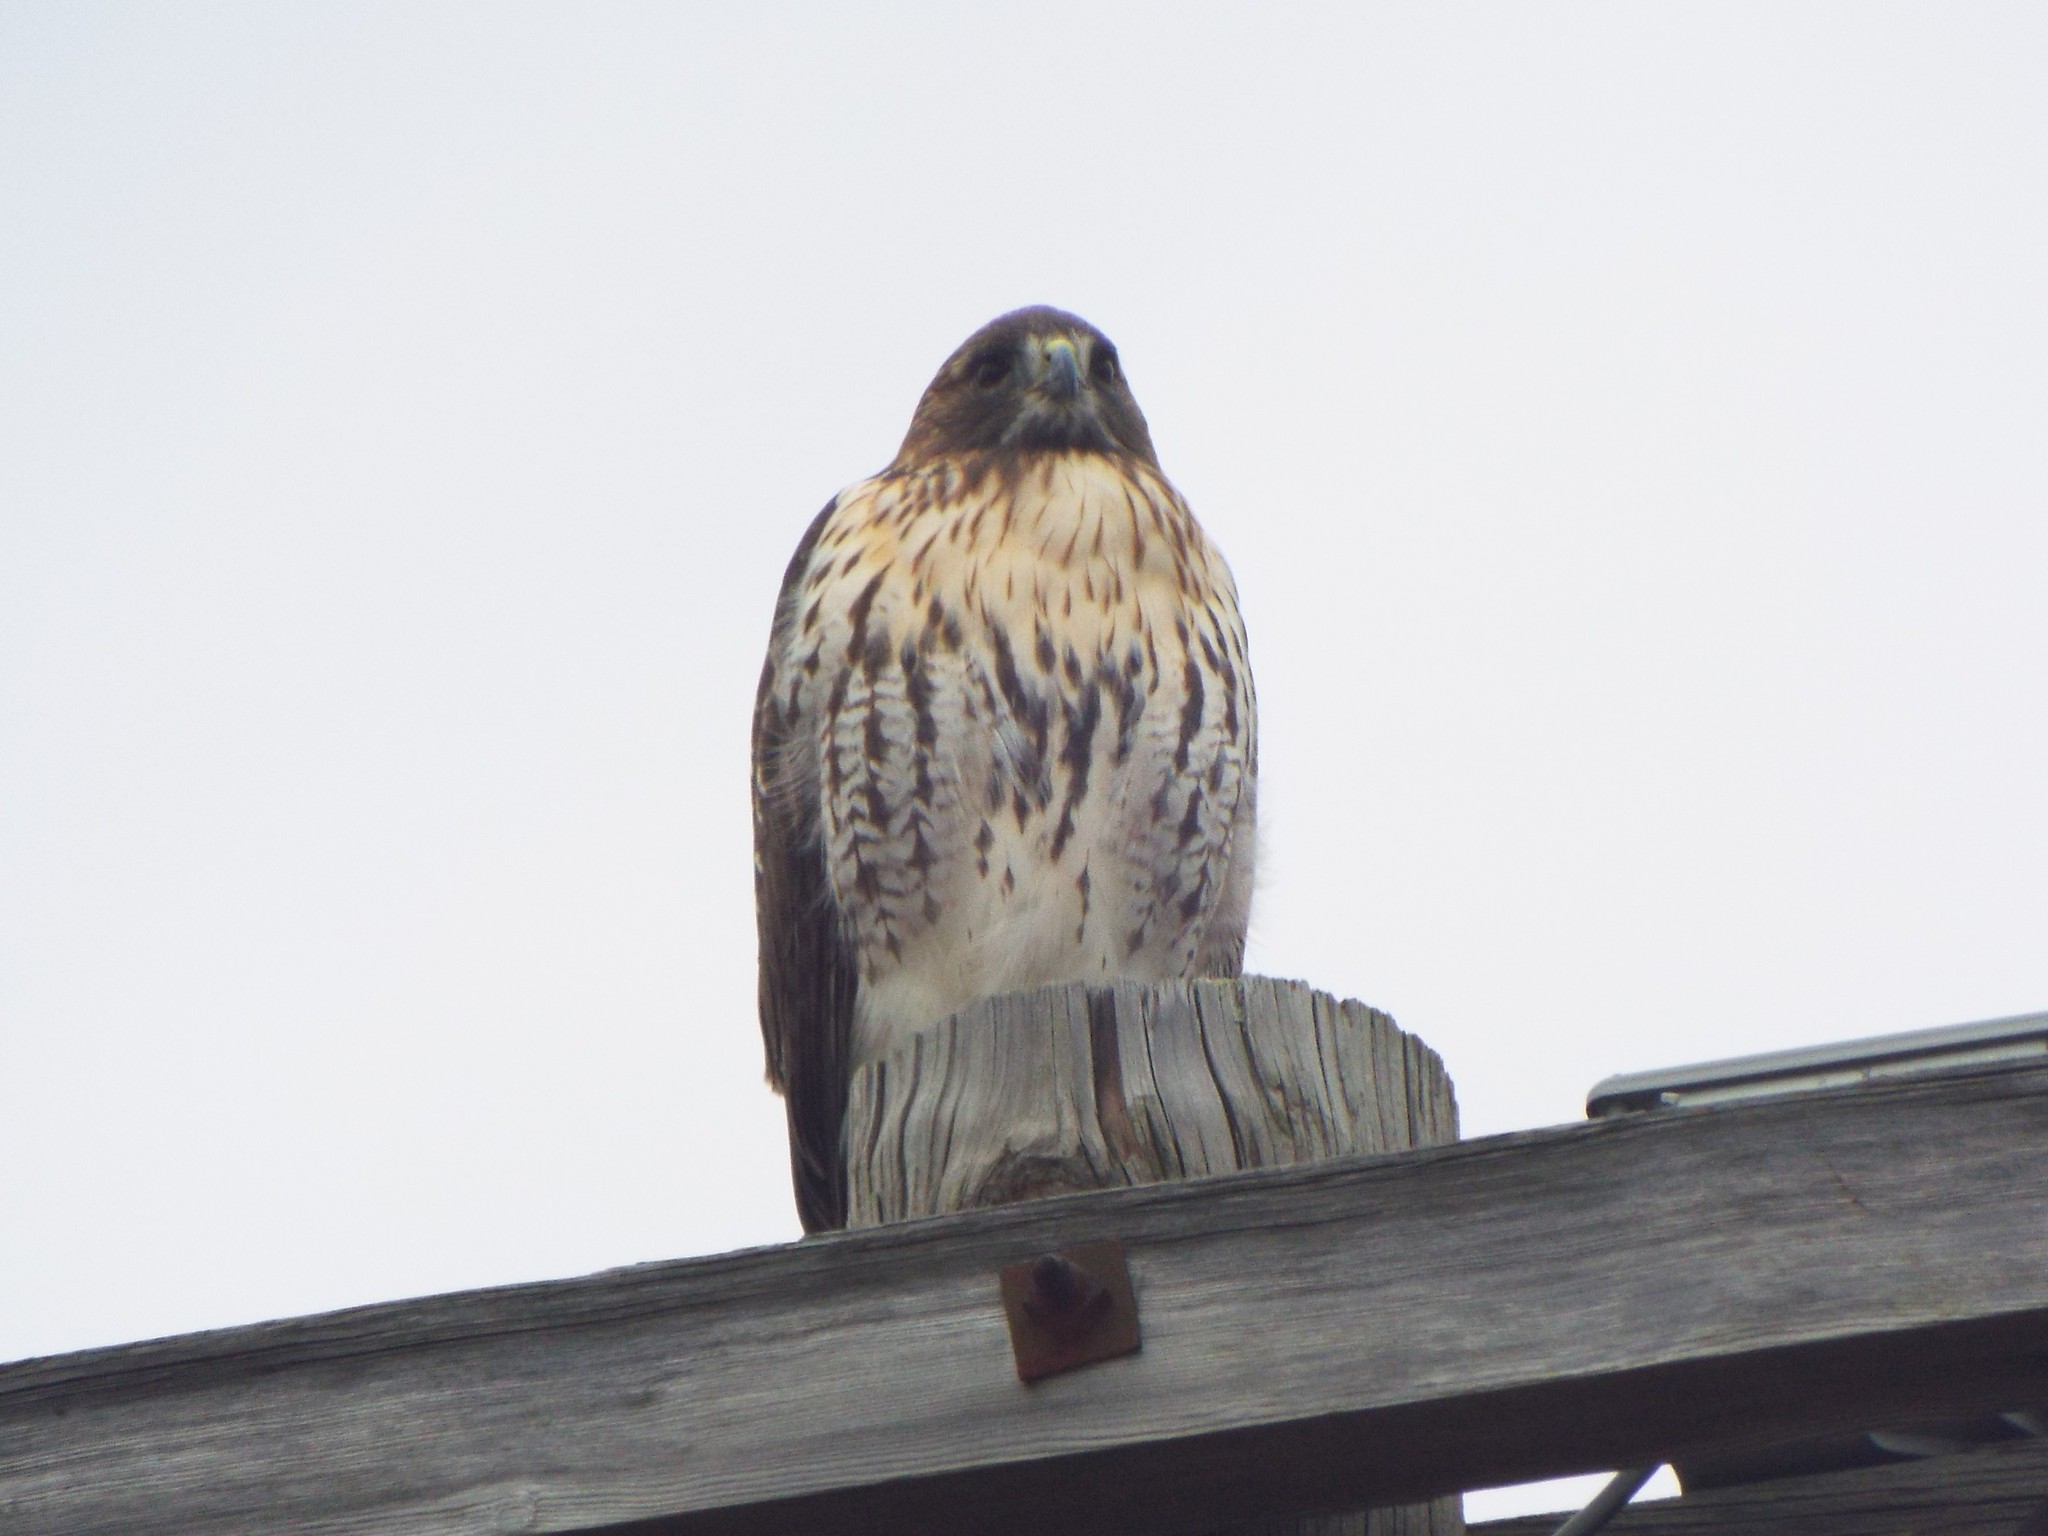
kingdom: Animalia
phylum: Chordata
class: Aves
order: Accipitriformes
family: Accipitridae
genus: Buteo
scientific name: Buteo jamaicensis
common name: Red-tailed hawk
